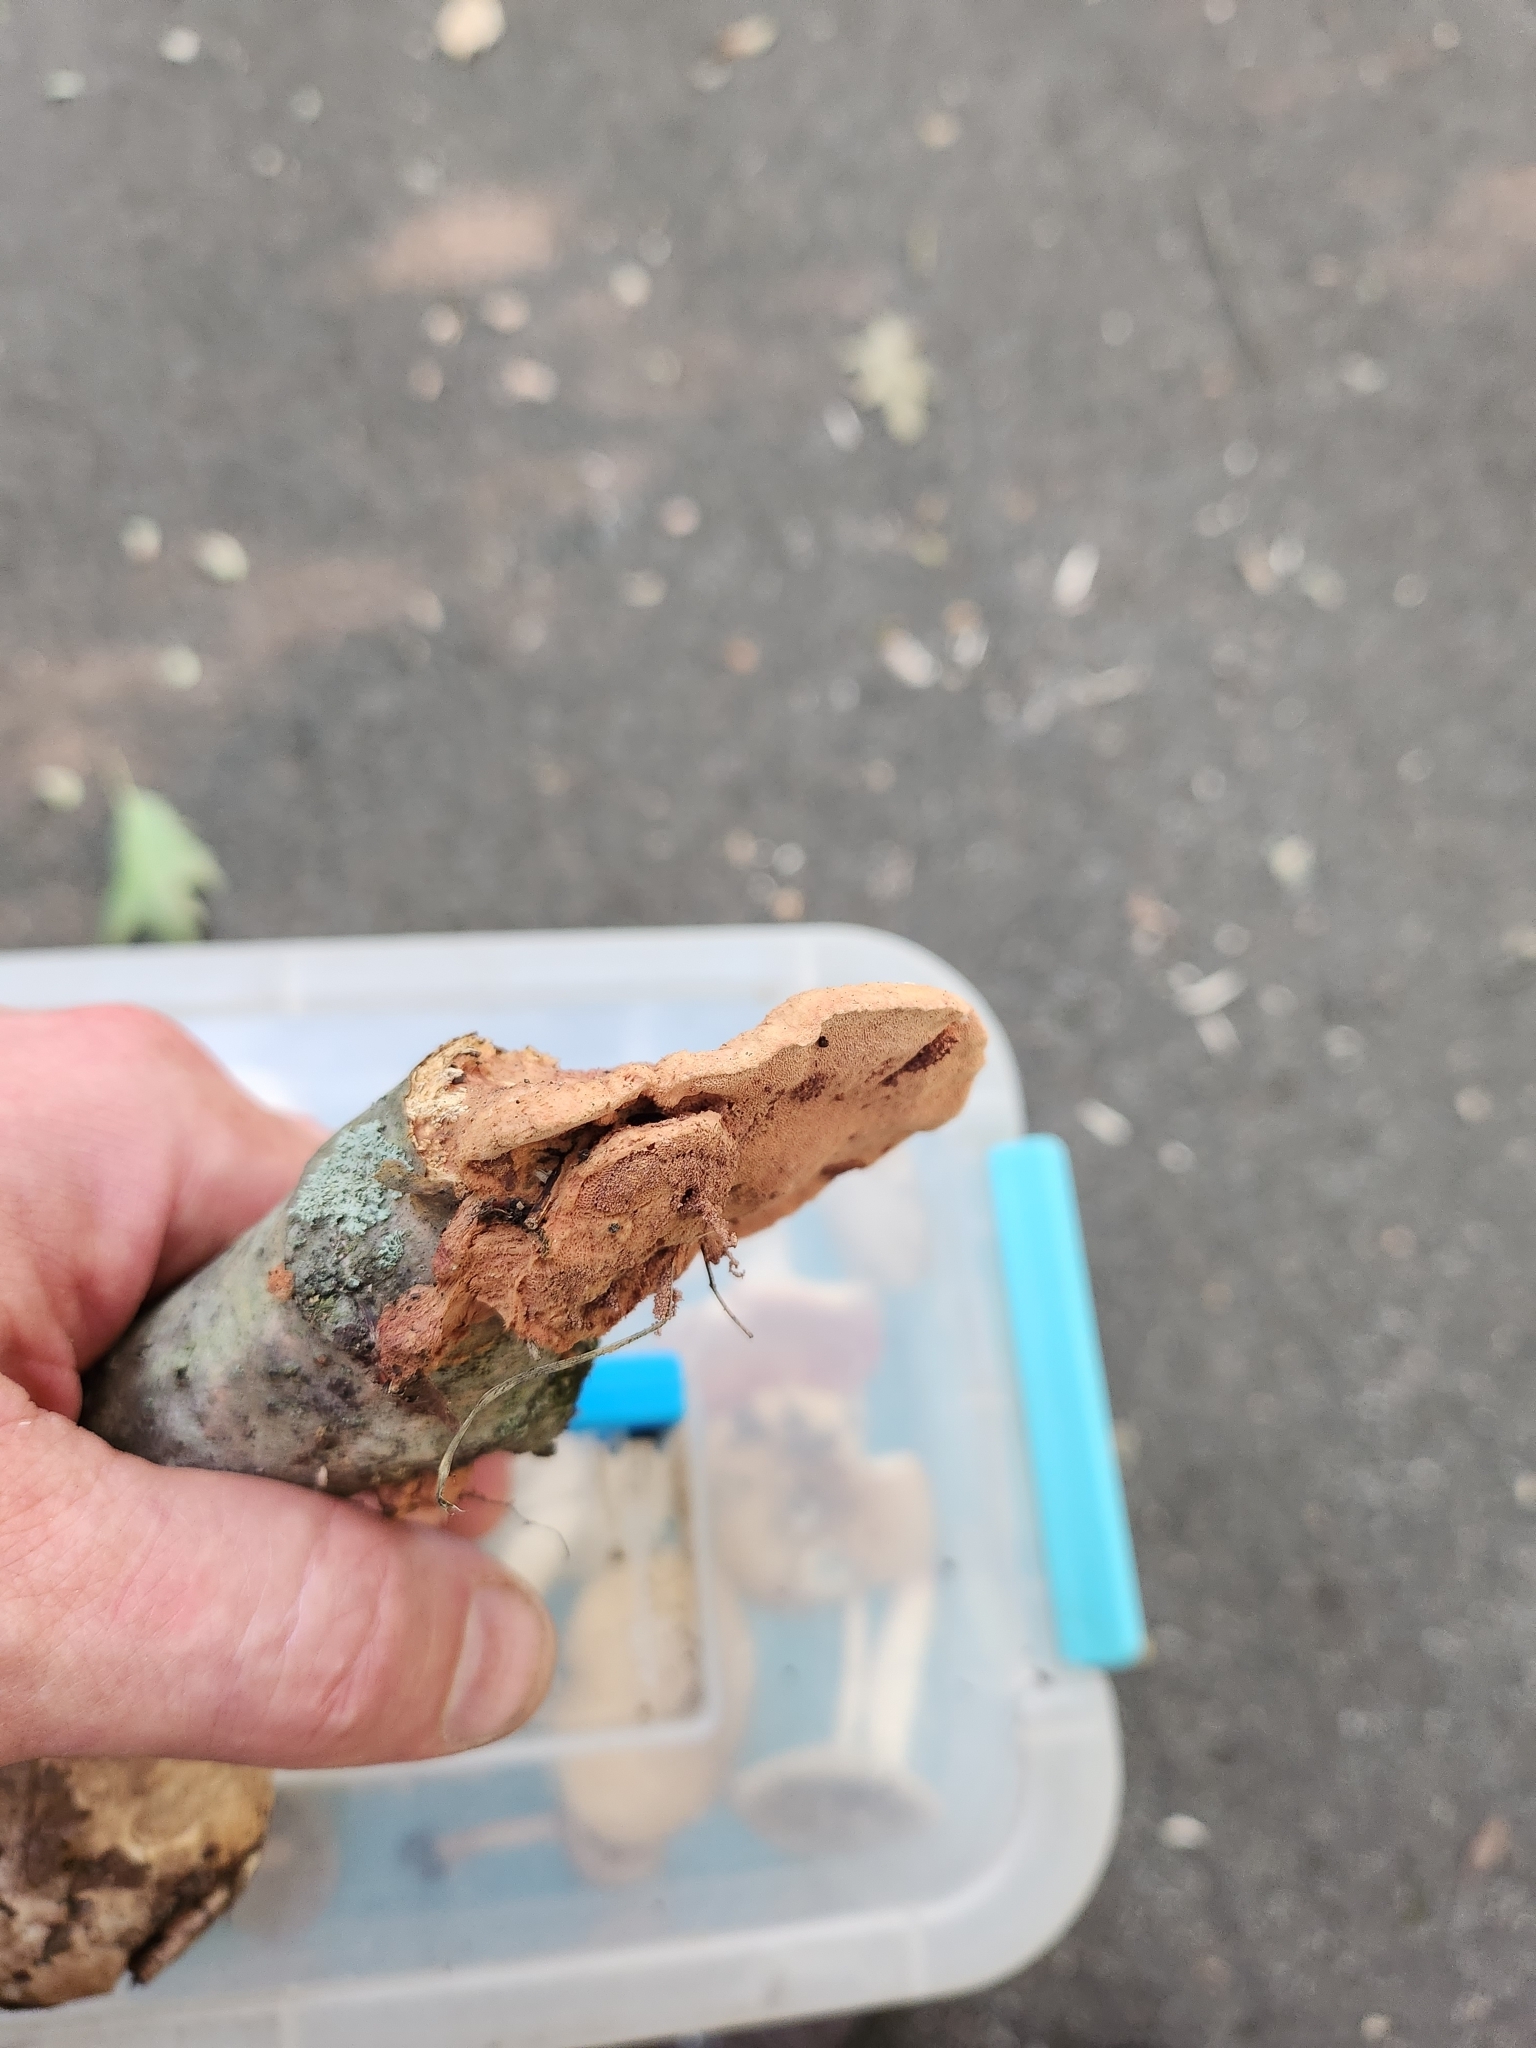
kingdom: Fungi
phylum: Basidiomycota
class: Agaricomycetes
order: Polyporales
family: Phanerochaetaceae
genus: Hapalopilus
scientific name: Hapalopilus rutilans
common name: Tender nesting polypore
